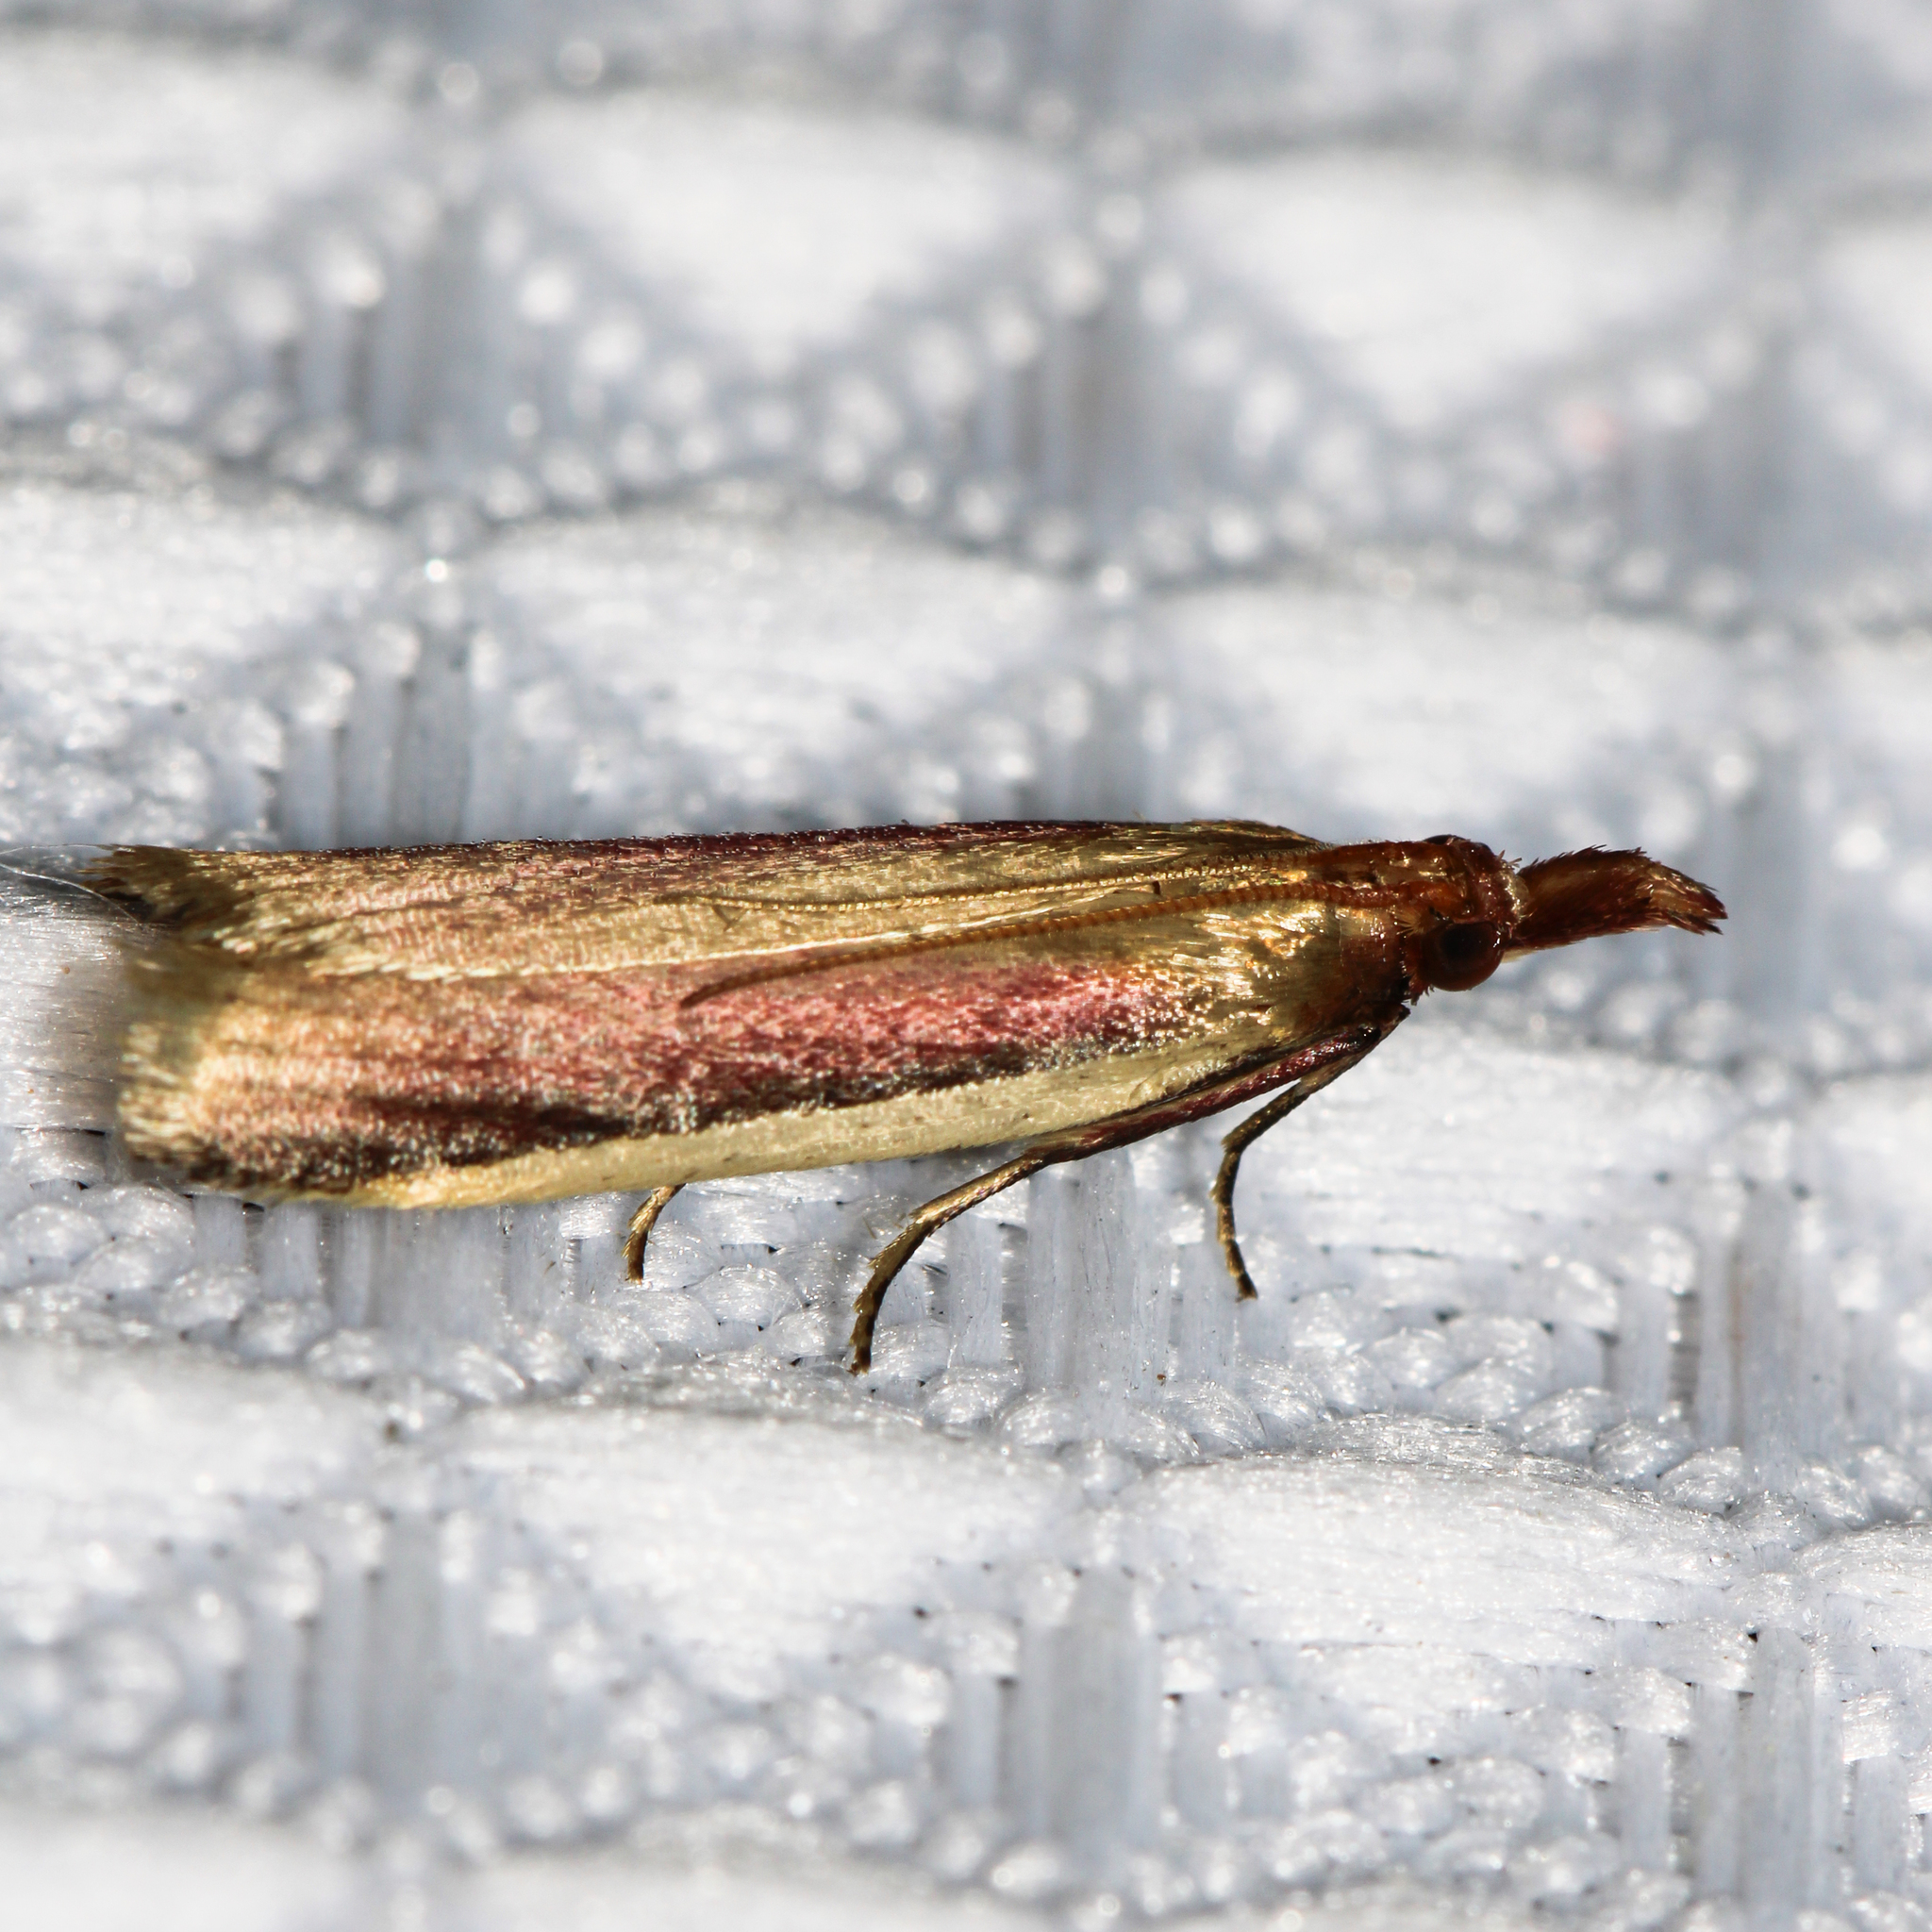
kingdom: Animalia
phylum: Arthropoda
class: Insecta
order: Lepidoptera
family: Pyralidae
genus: Peoria
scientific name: Peoria approximella
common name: Carmine snout
